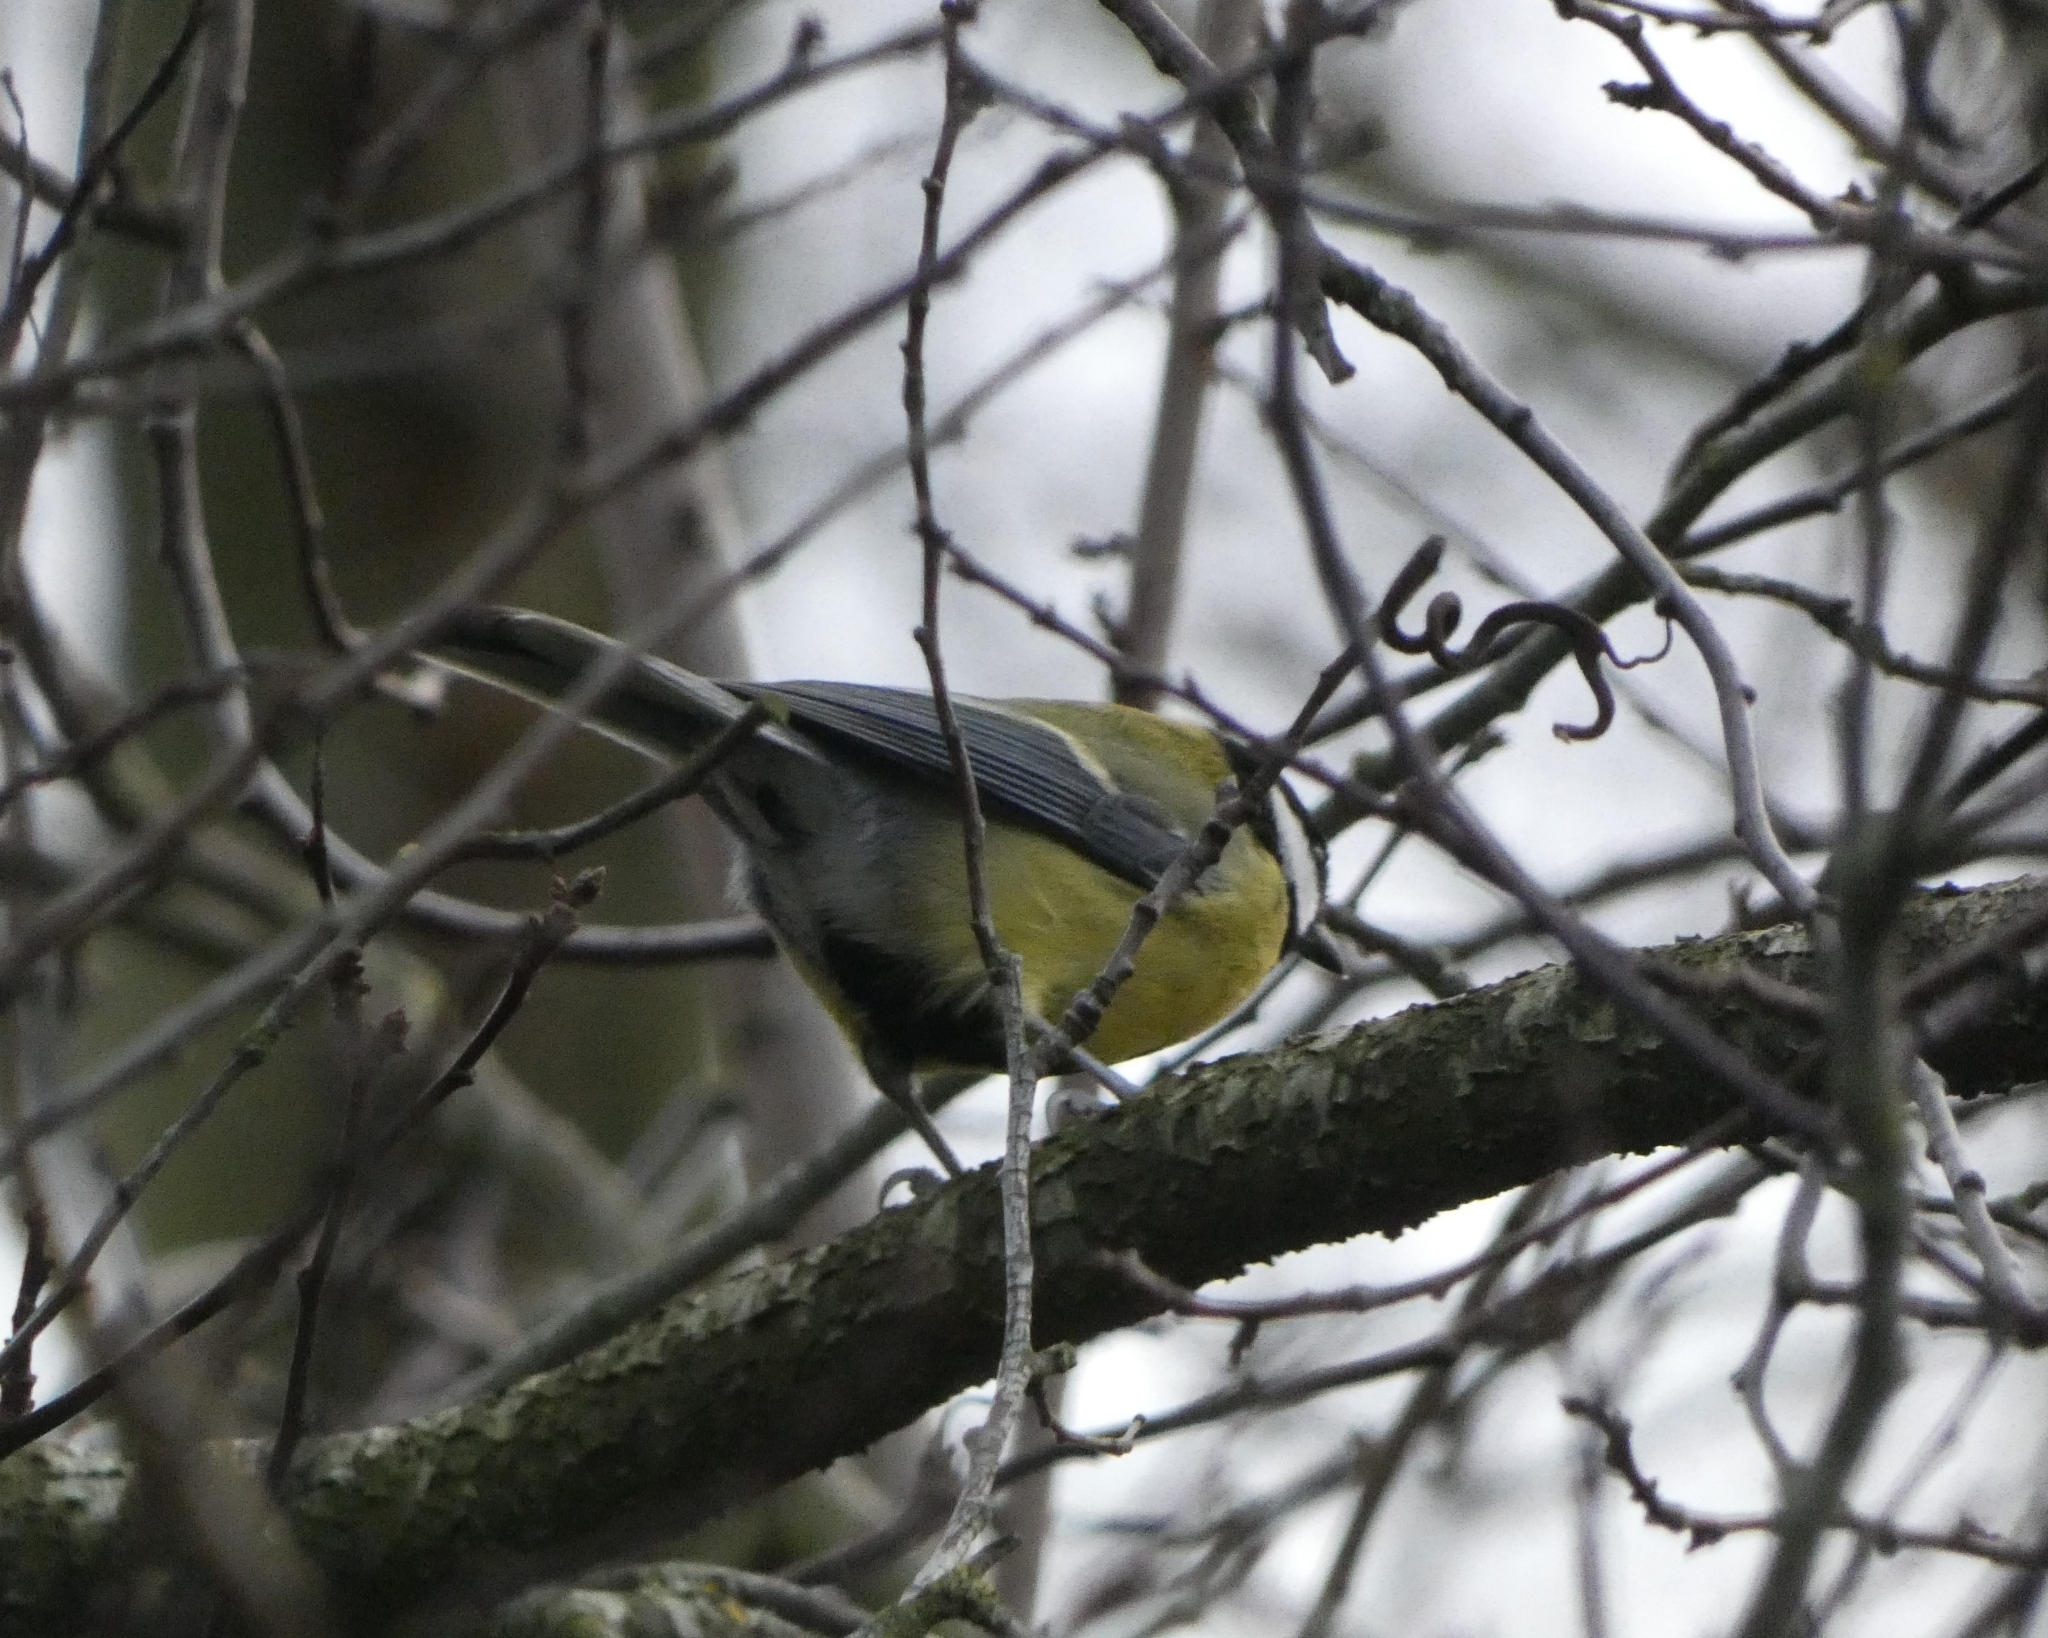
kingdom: Animalia
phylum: Chordata
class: Aves
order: Passeriformes
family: Paridae
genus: Parus
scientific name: Parus major
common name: Great tit
